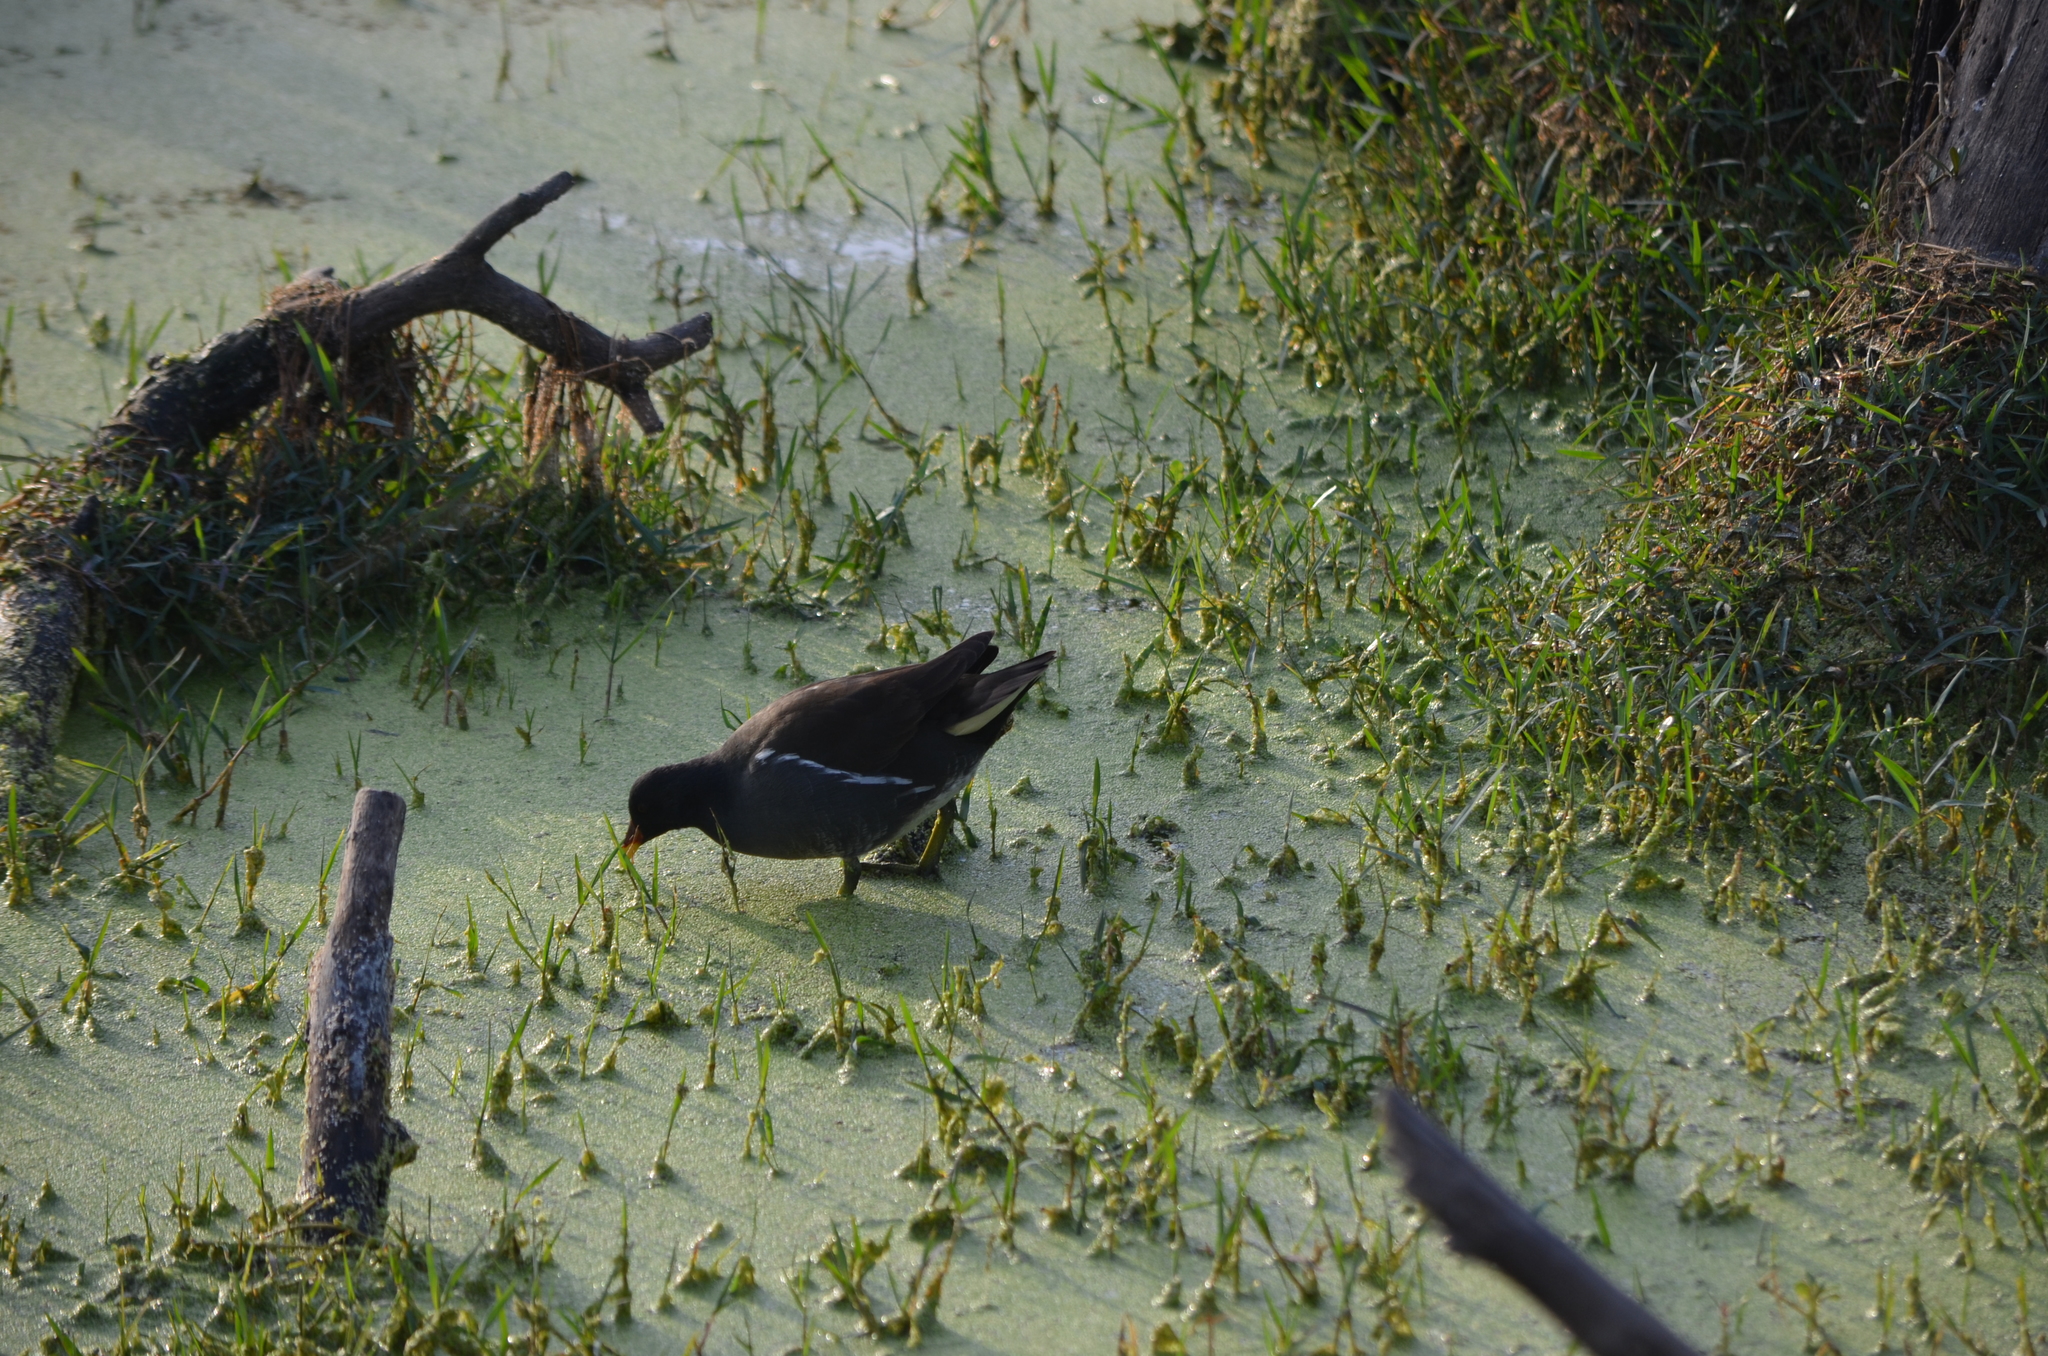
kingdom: Animalia
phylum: Chordata
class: Aves
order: Gruiformes
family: Rallidae
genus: Gallinula
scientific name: Gallinula chloropus
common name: Common moorhen
